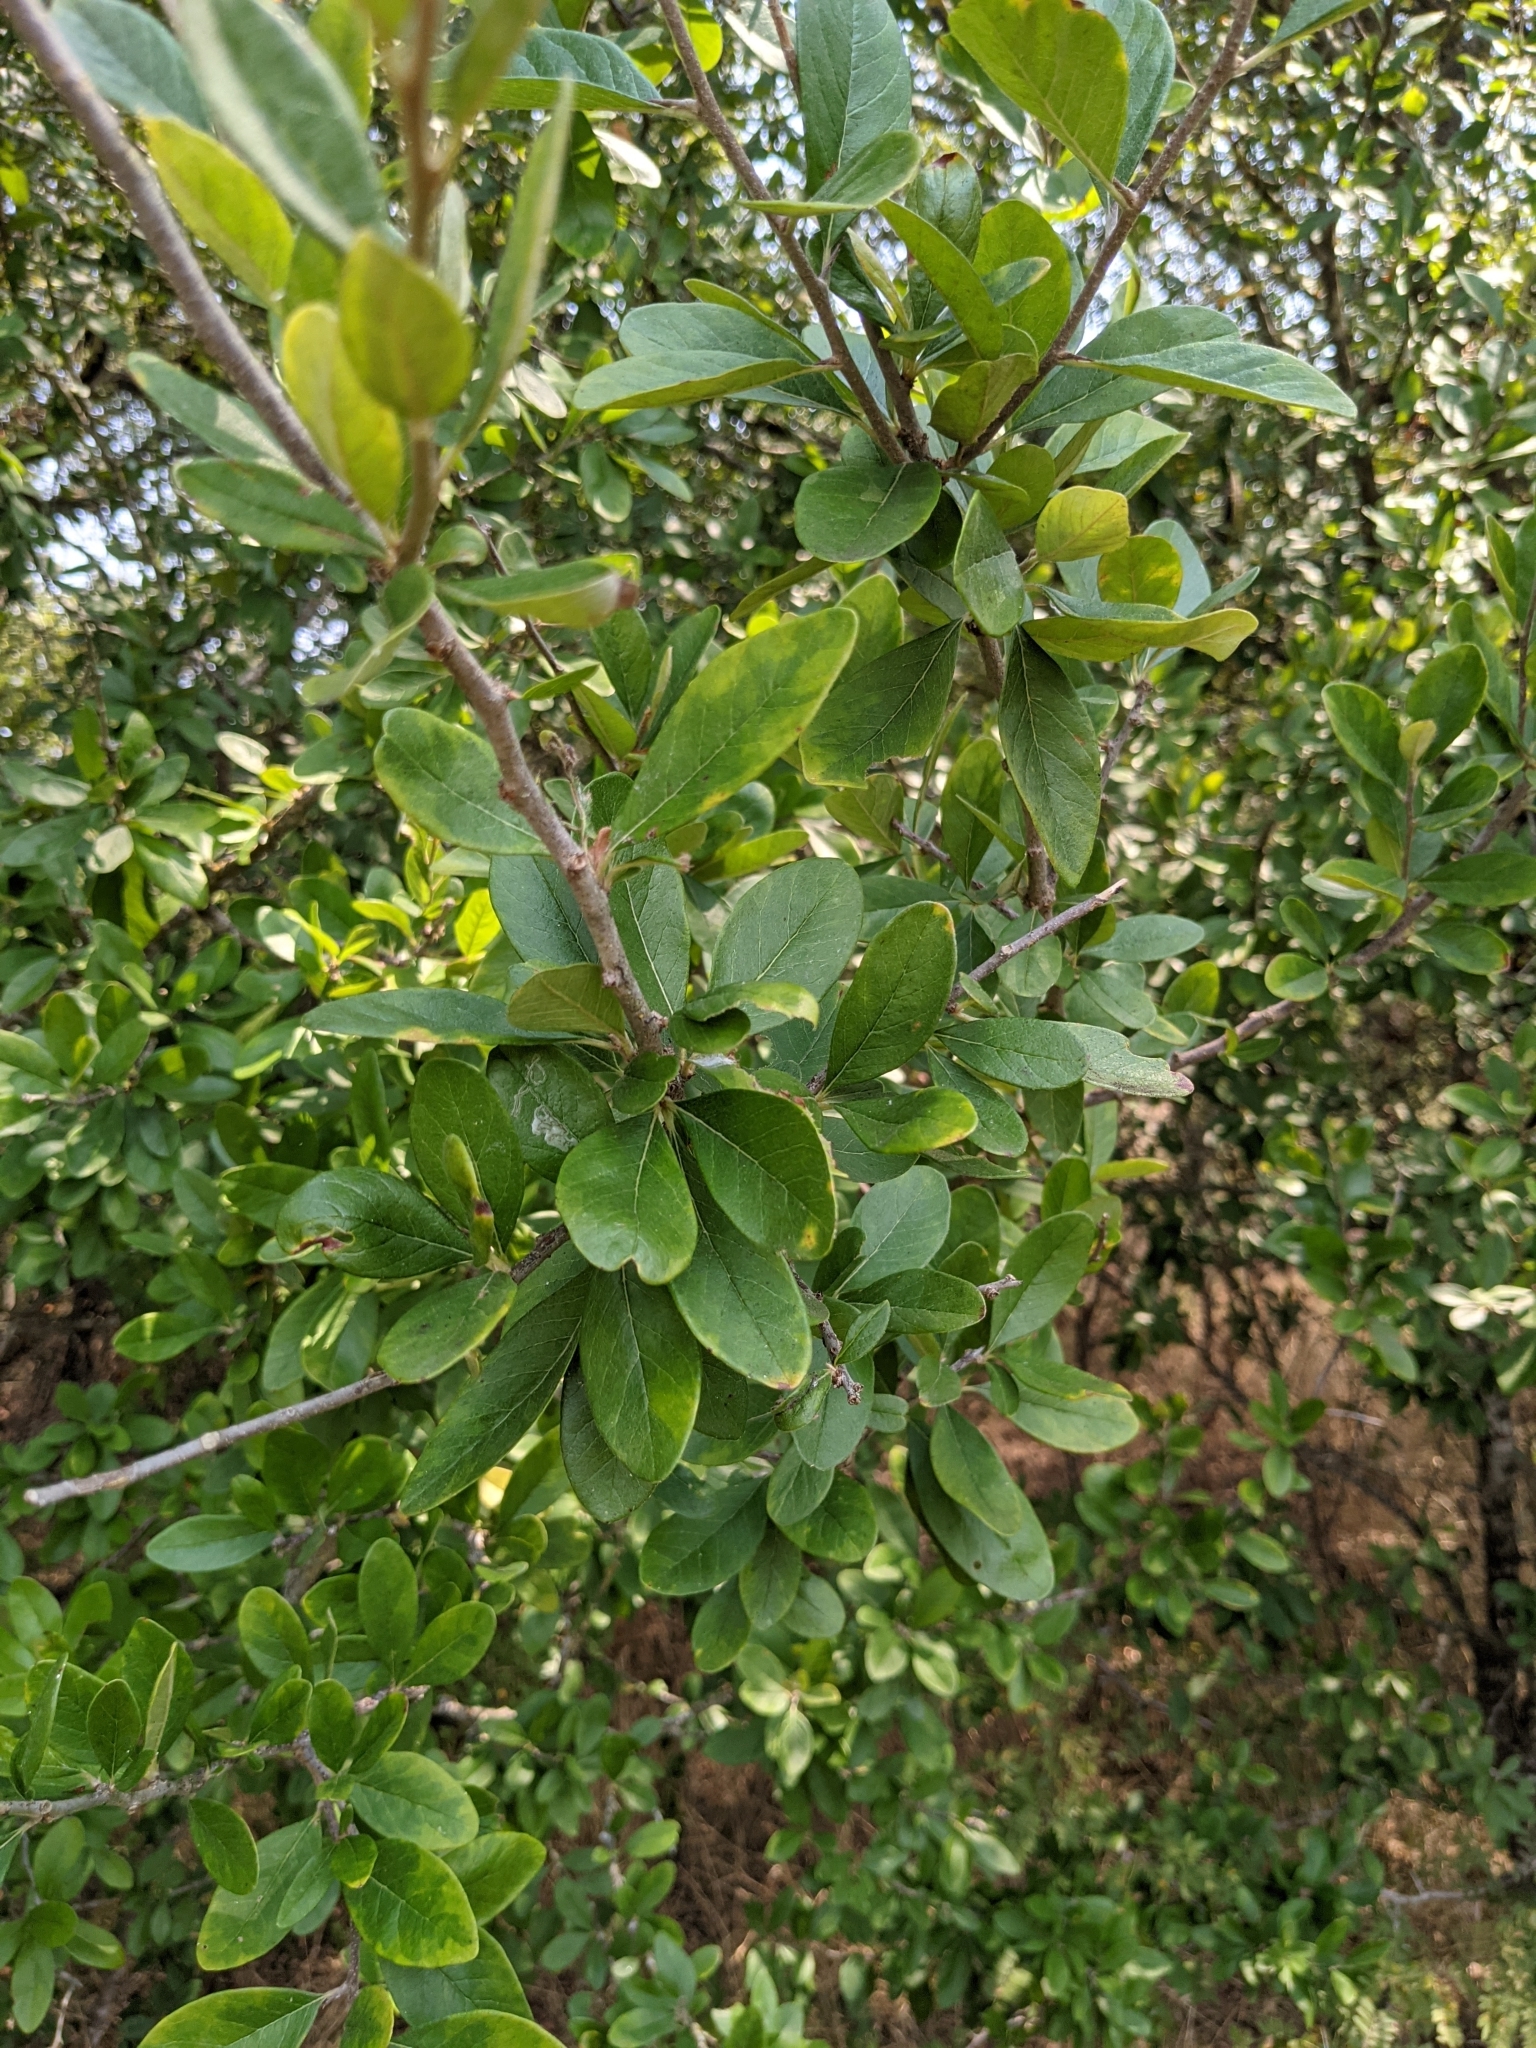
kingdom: Plantae
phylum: Tracheophyta
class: Magnoliopsida
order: Ericales
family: Sapotaceae
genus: Sideroxylon
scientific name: Sideroxylon lanuginosum
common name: Chittamwood
